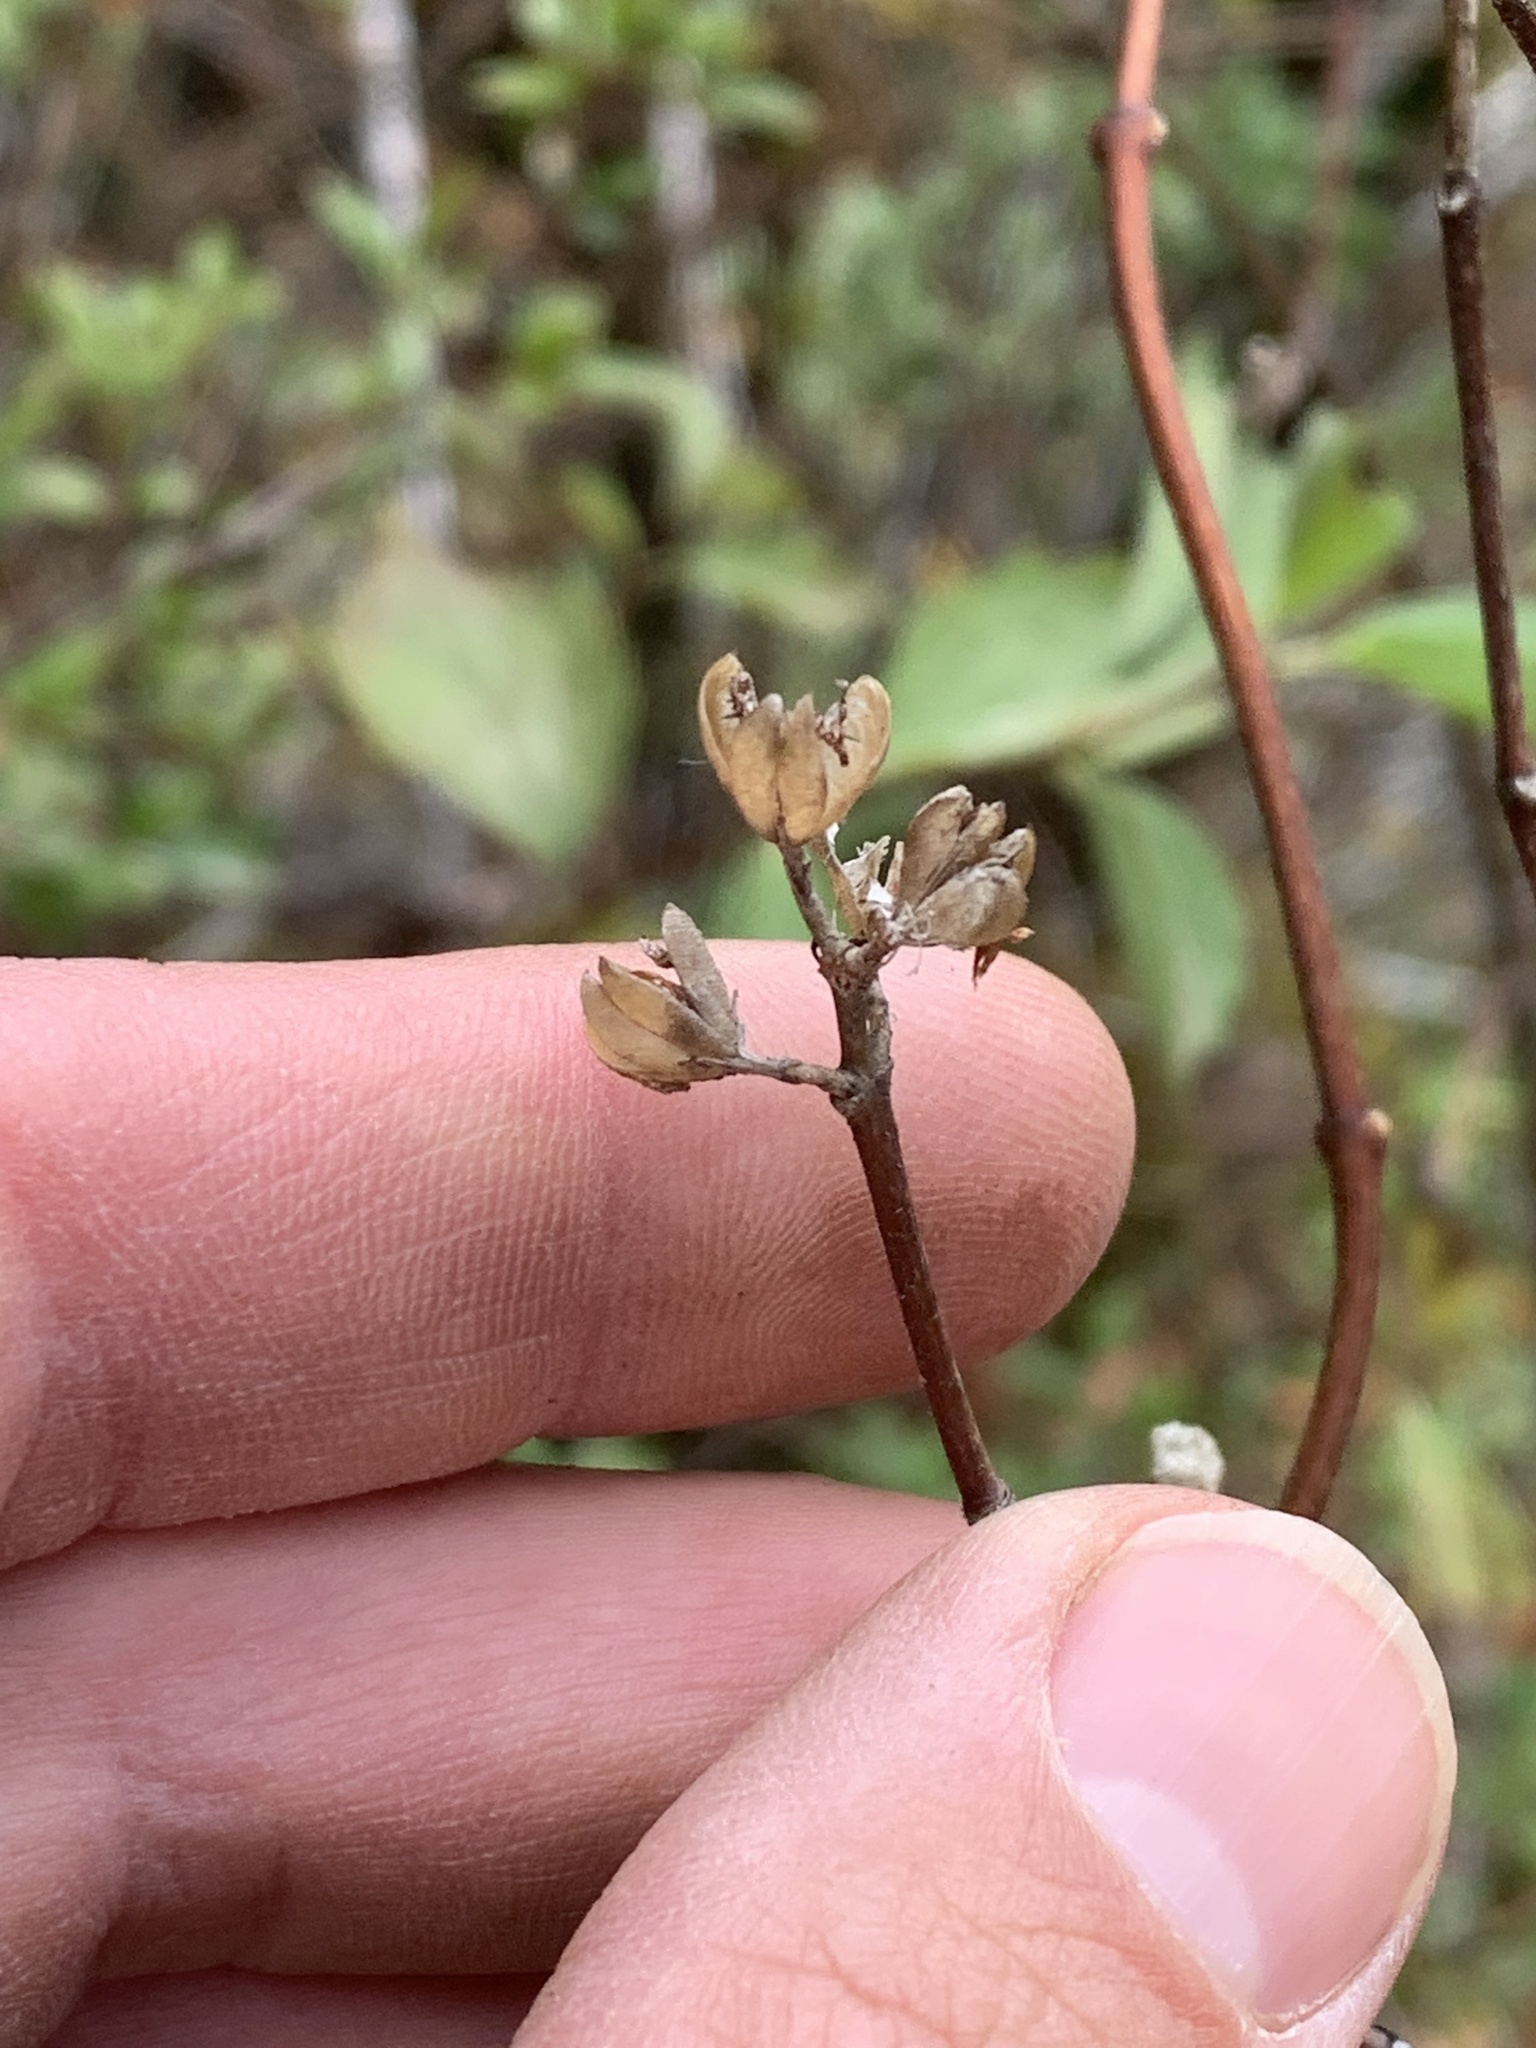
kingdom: Plantae
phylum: Tracheophyta
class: Magnoliopsida
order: Cornales
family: Hydrangeaceae
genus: Philadelphus
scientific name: Philadelphus lewisii
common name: Lewis's mock orange
